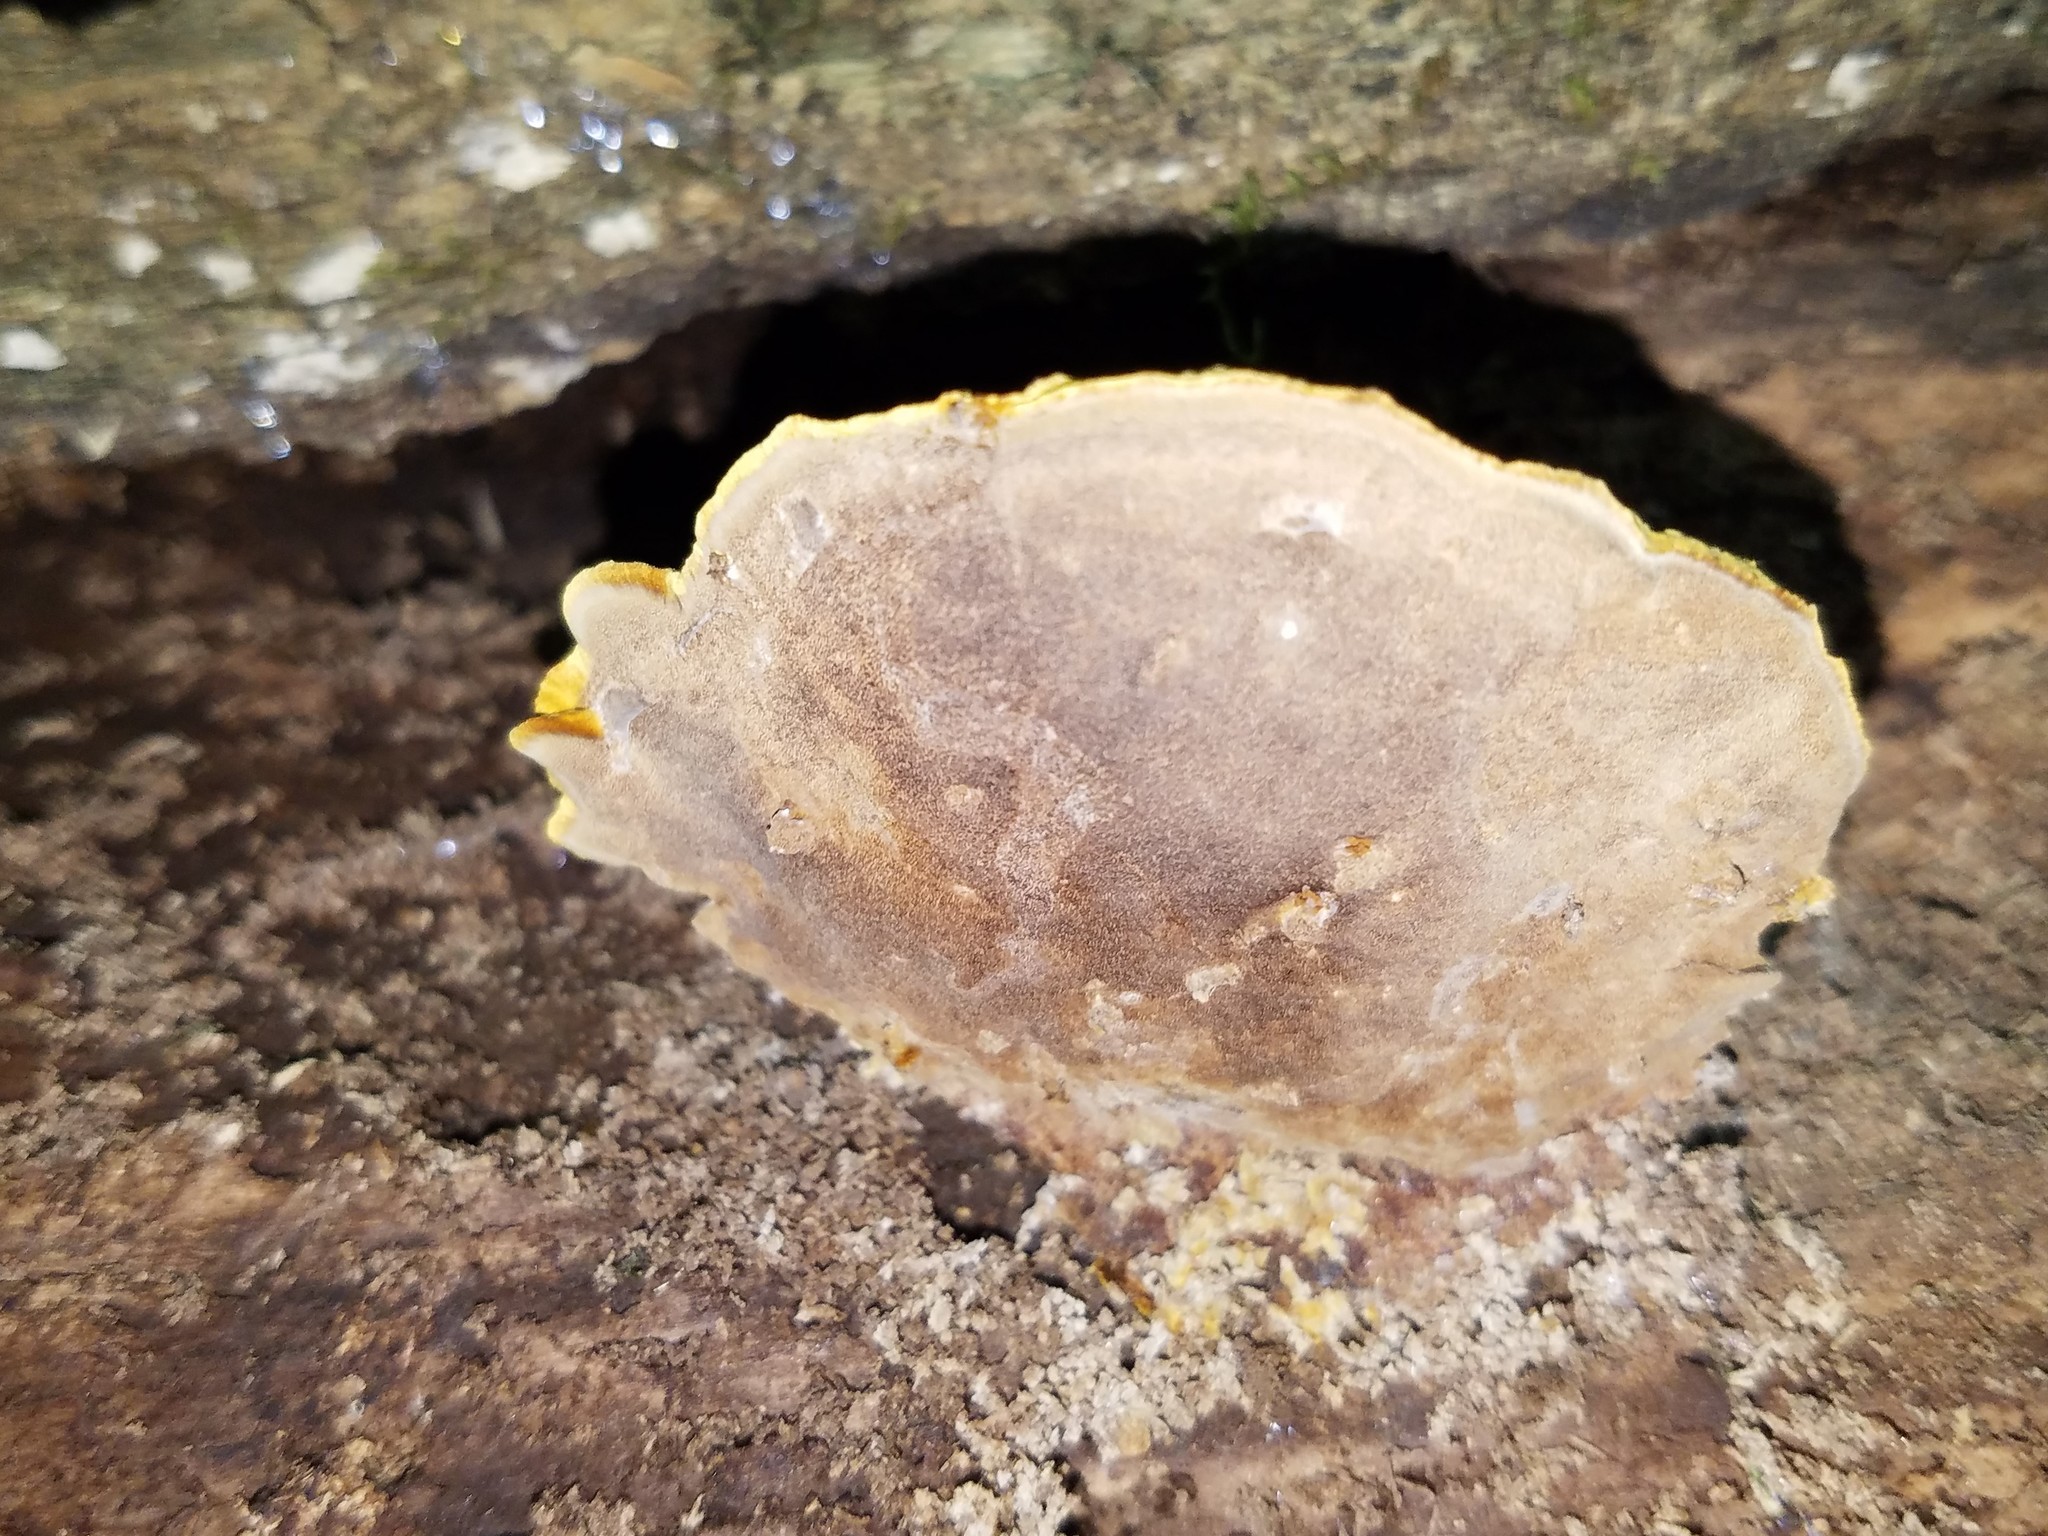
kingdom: Fungi
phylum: Basidiomycota
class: Agaricomycetes
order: Hymenochaetales
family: Hymenochaetaceae
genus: Phellinus
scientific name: Phellinus gilvus
